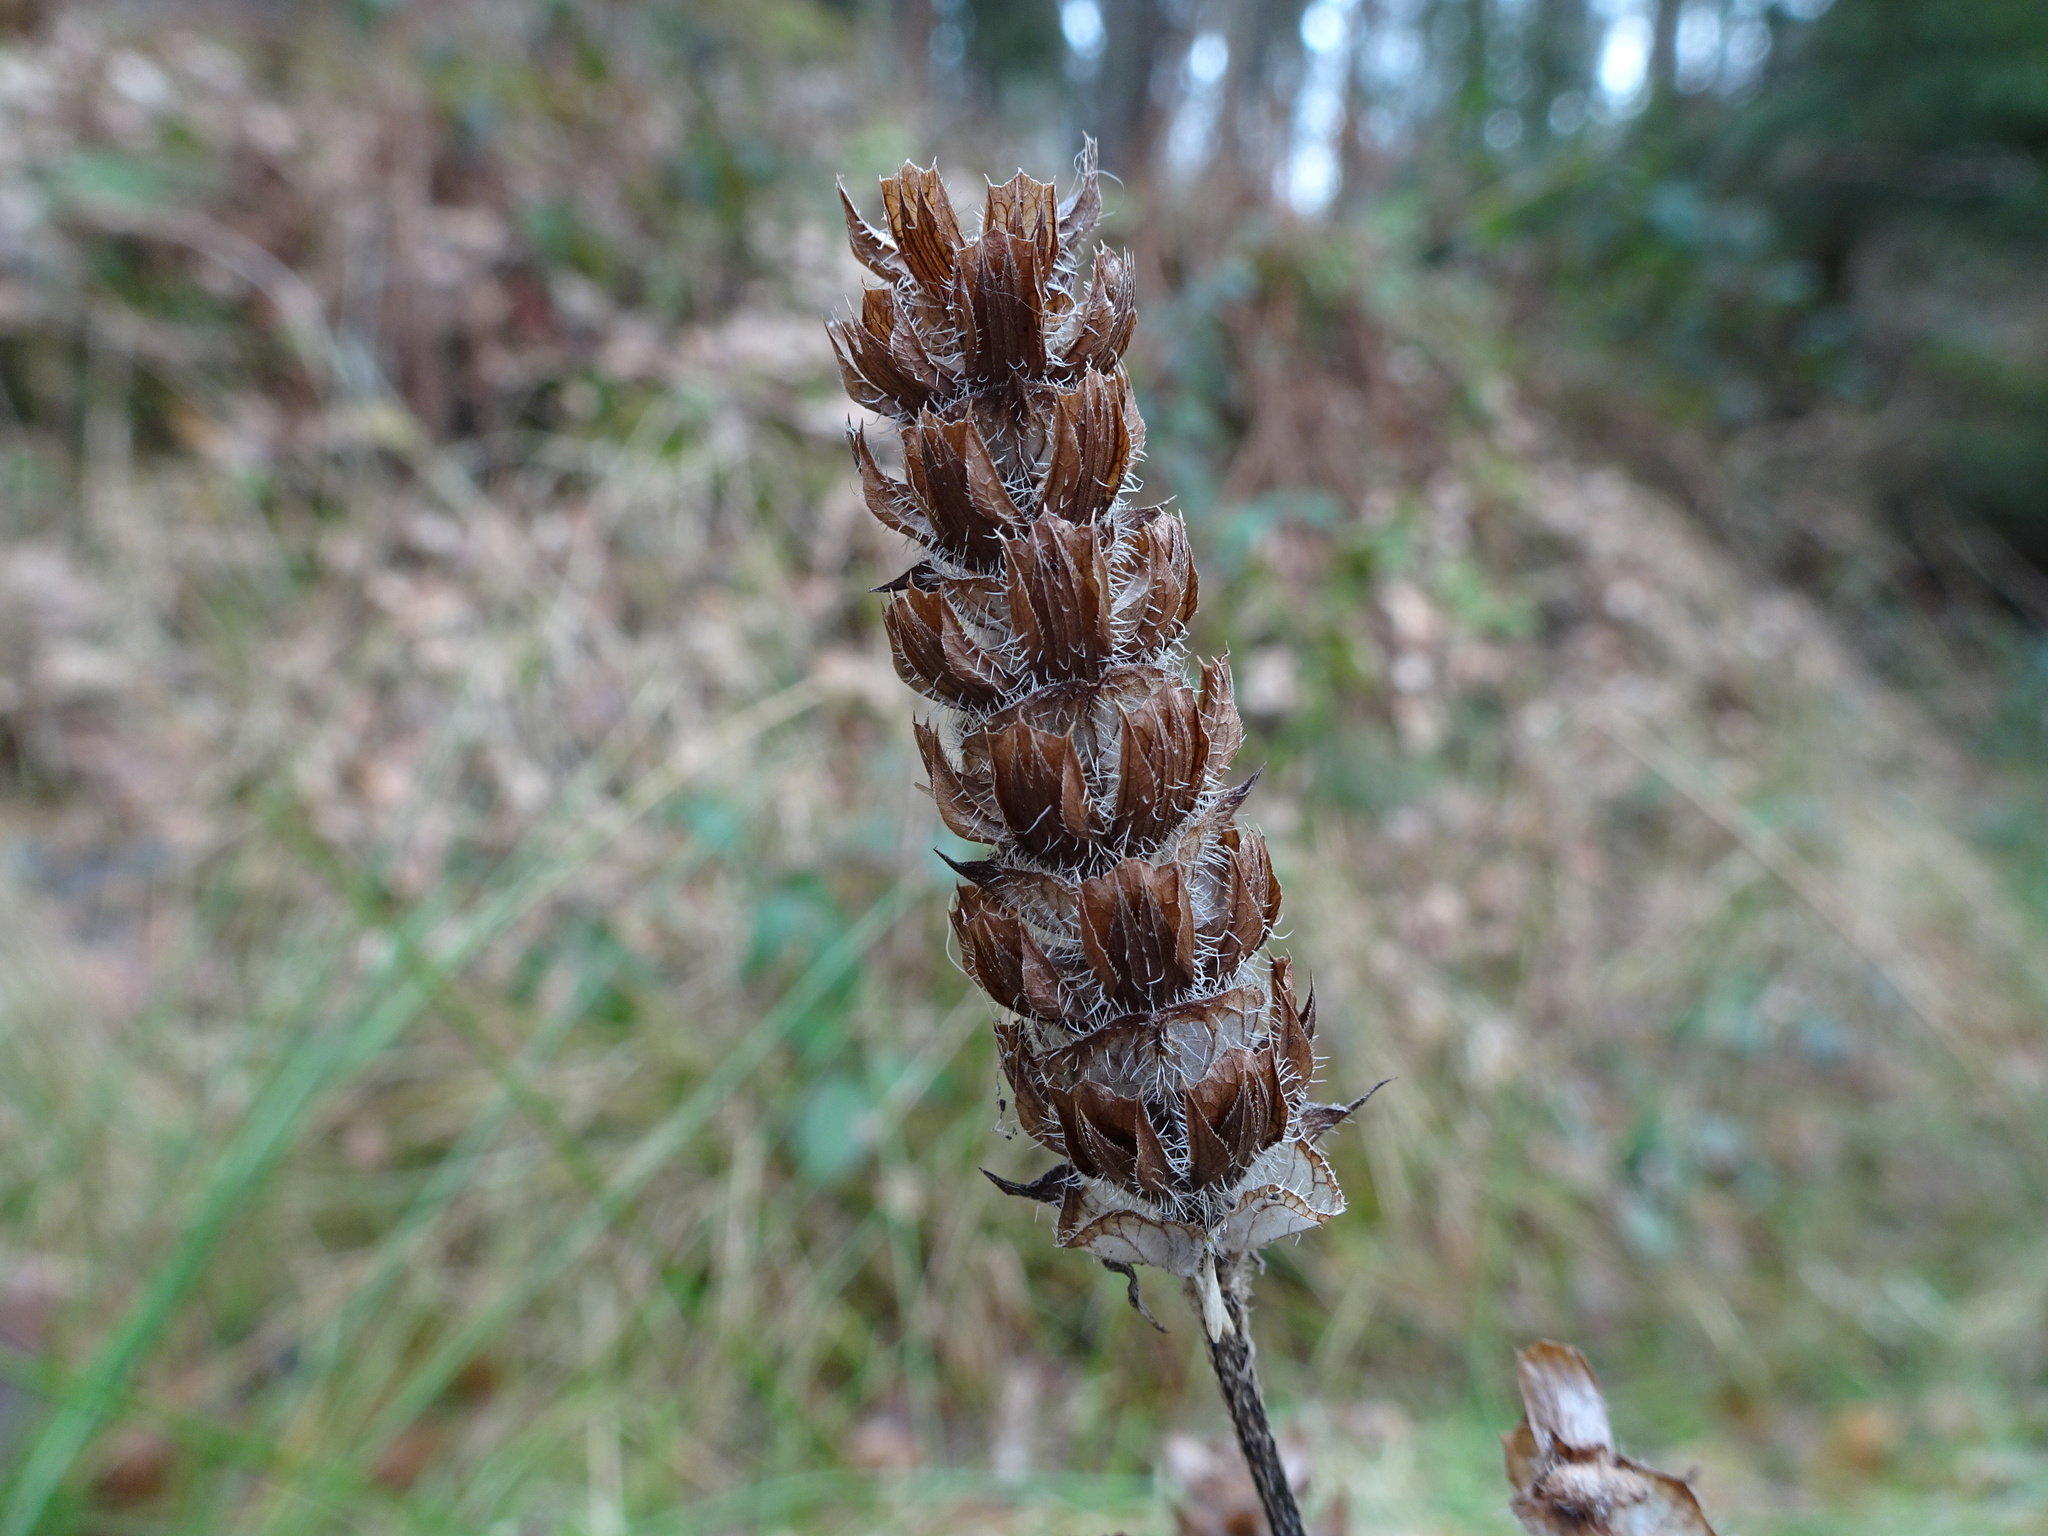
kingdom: Plantae
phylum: Tracheophyta
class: Magnoliopsida
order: Lamiales
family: Lamiaceae
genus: Prunella
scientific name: Prunella vulgaris
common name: Heal-all
